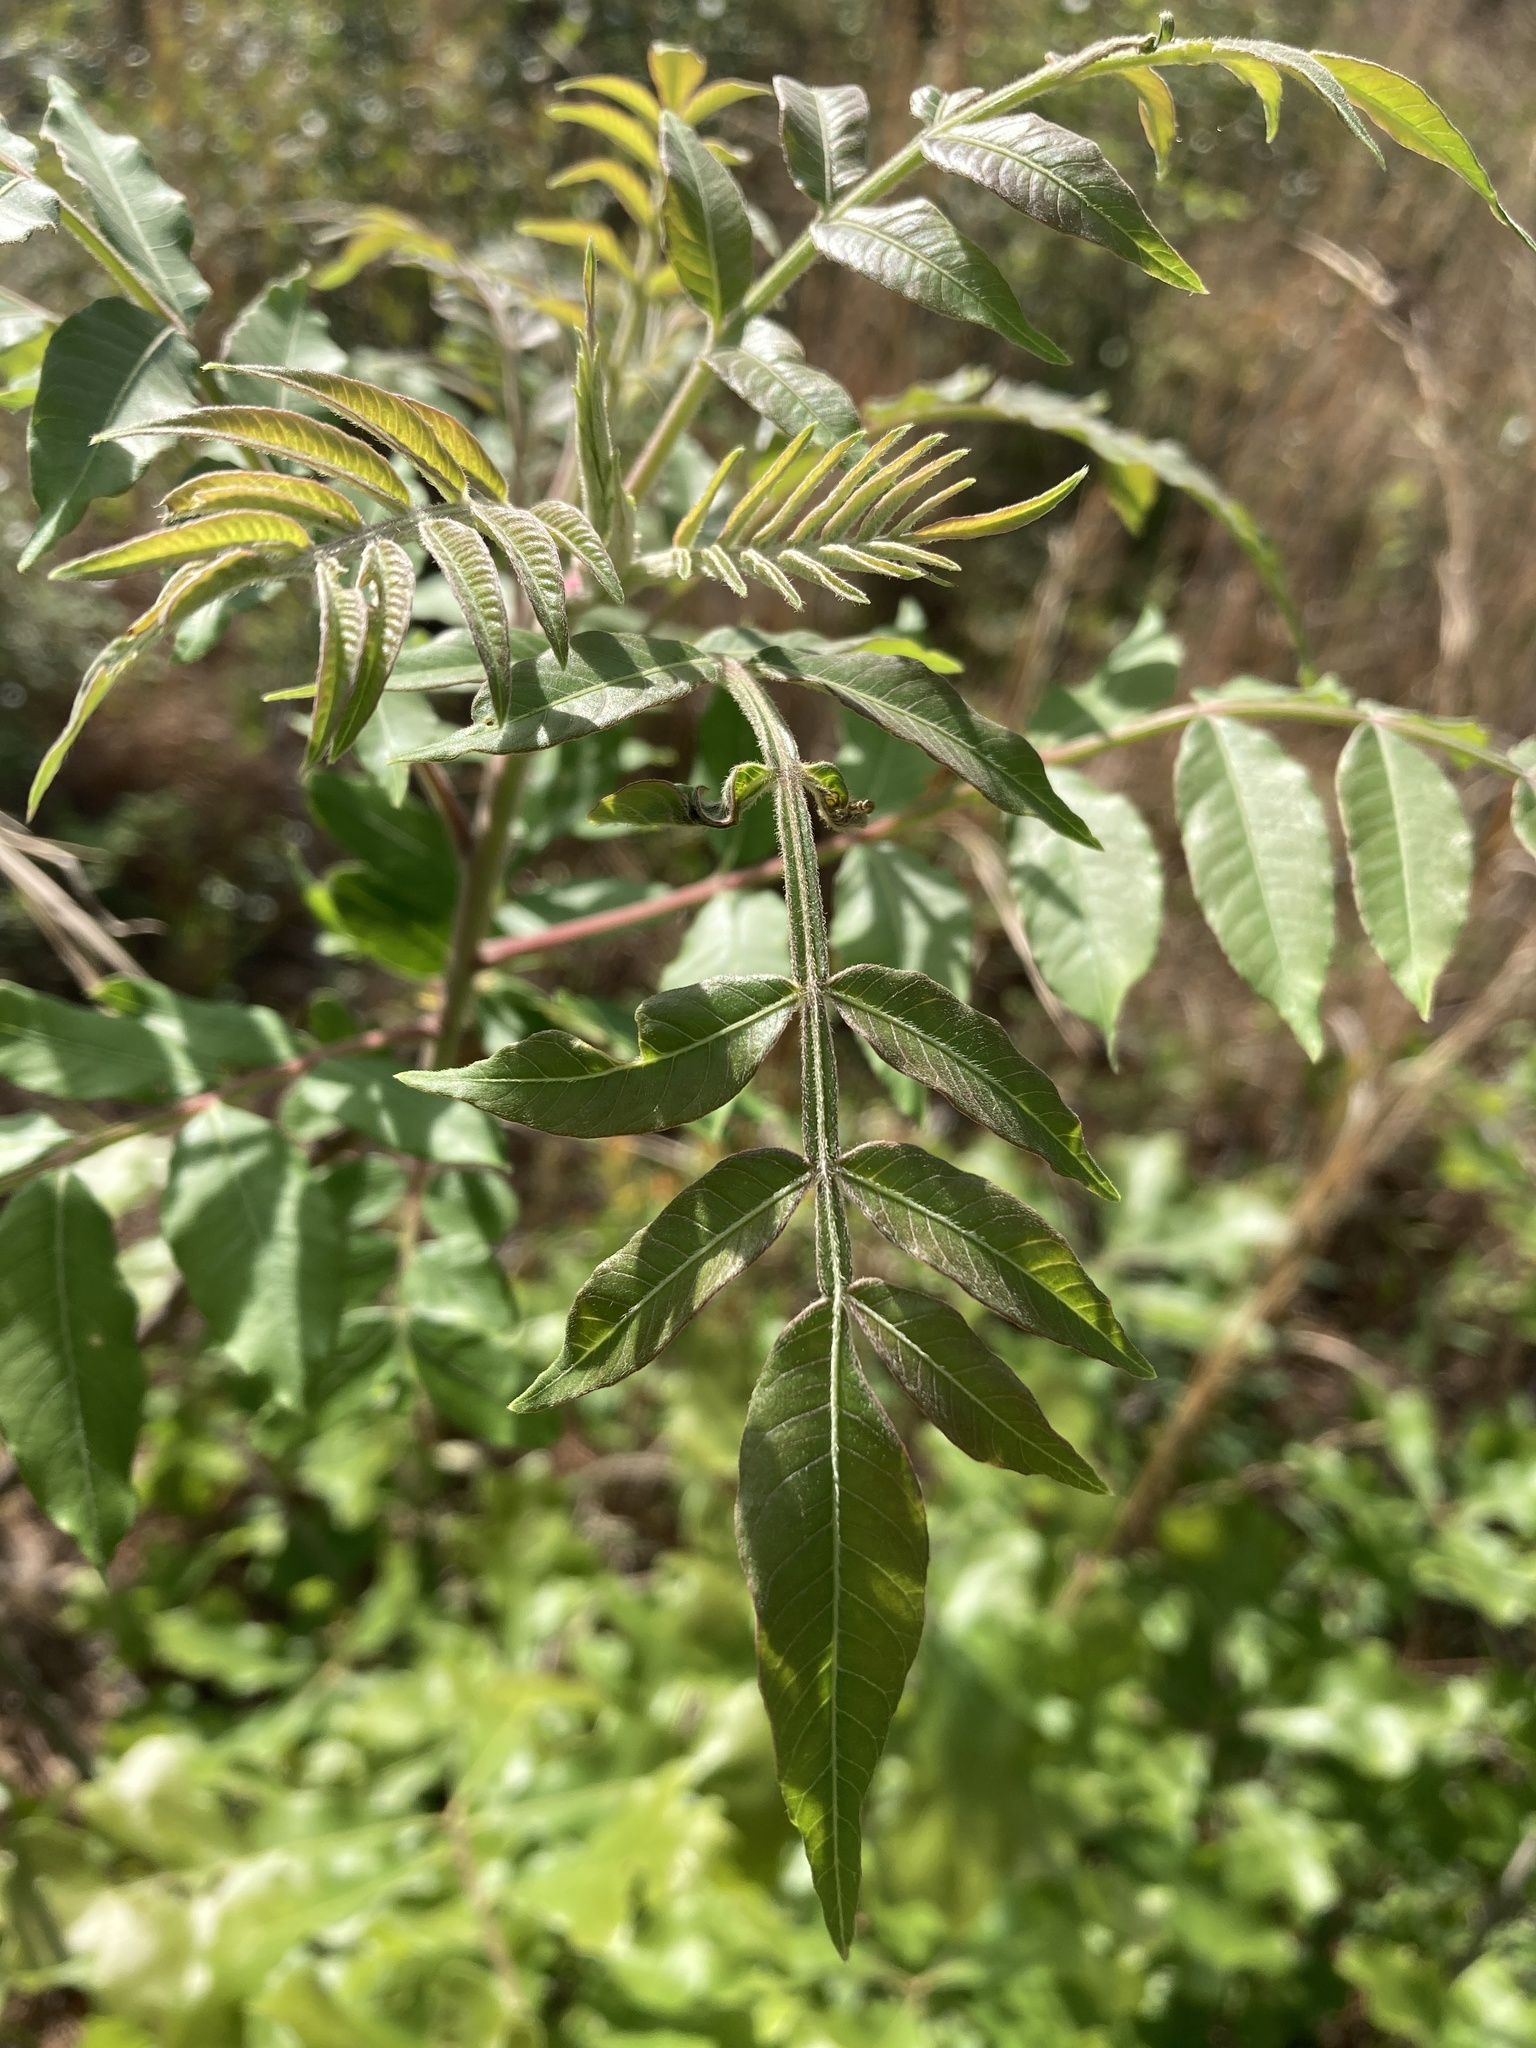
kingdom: Plantae
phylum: Tracheophyta
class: Magnoliopsida
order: Sapindales
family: Anacardiaceae
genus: Rhus
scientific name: Rhus copallina
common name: Shining sumac
